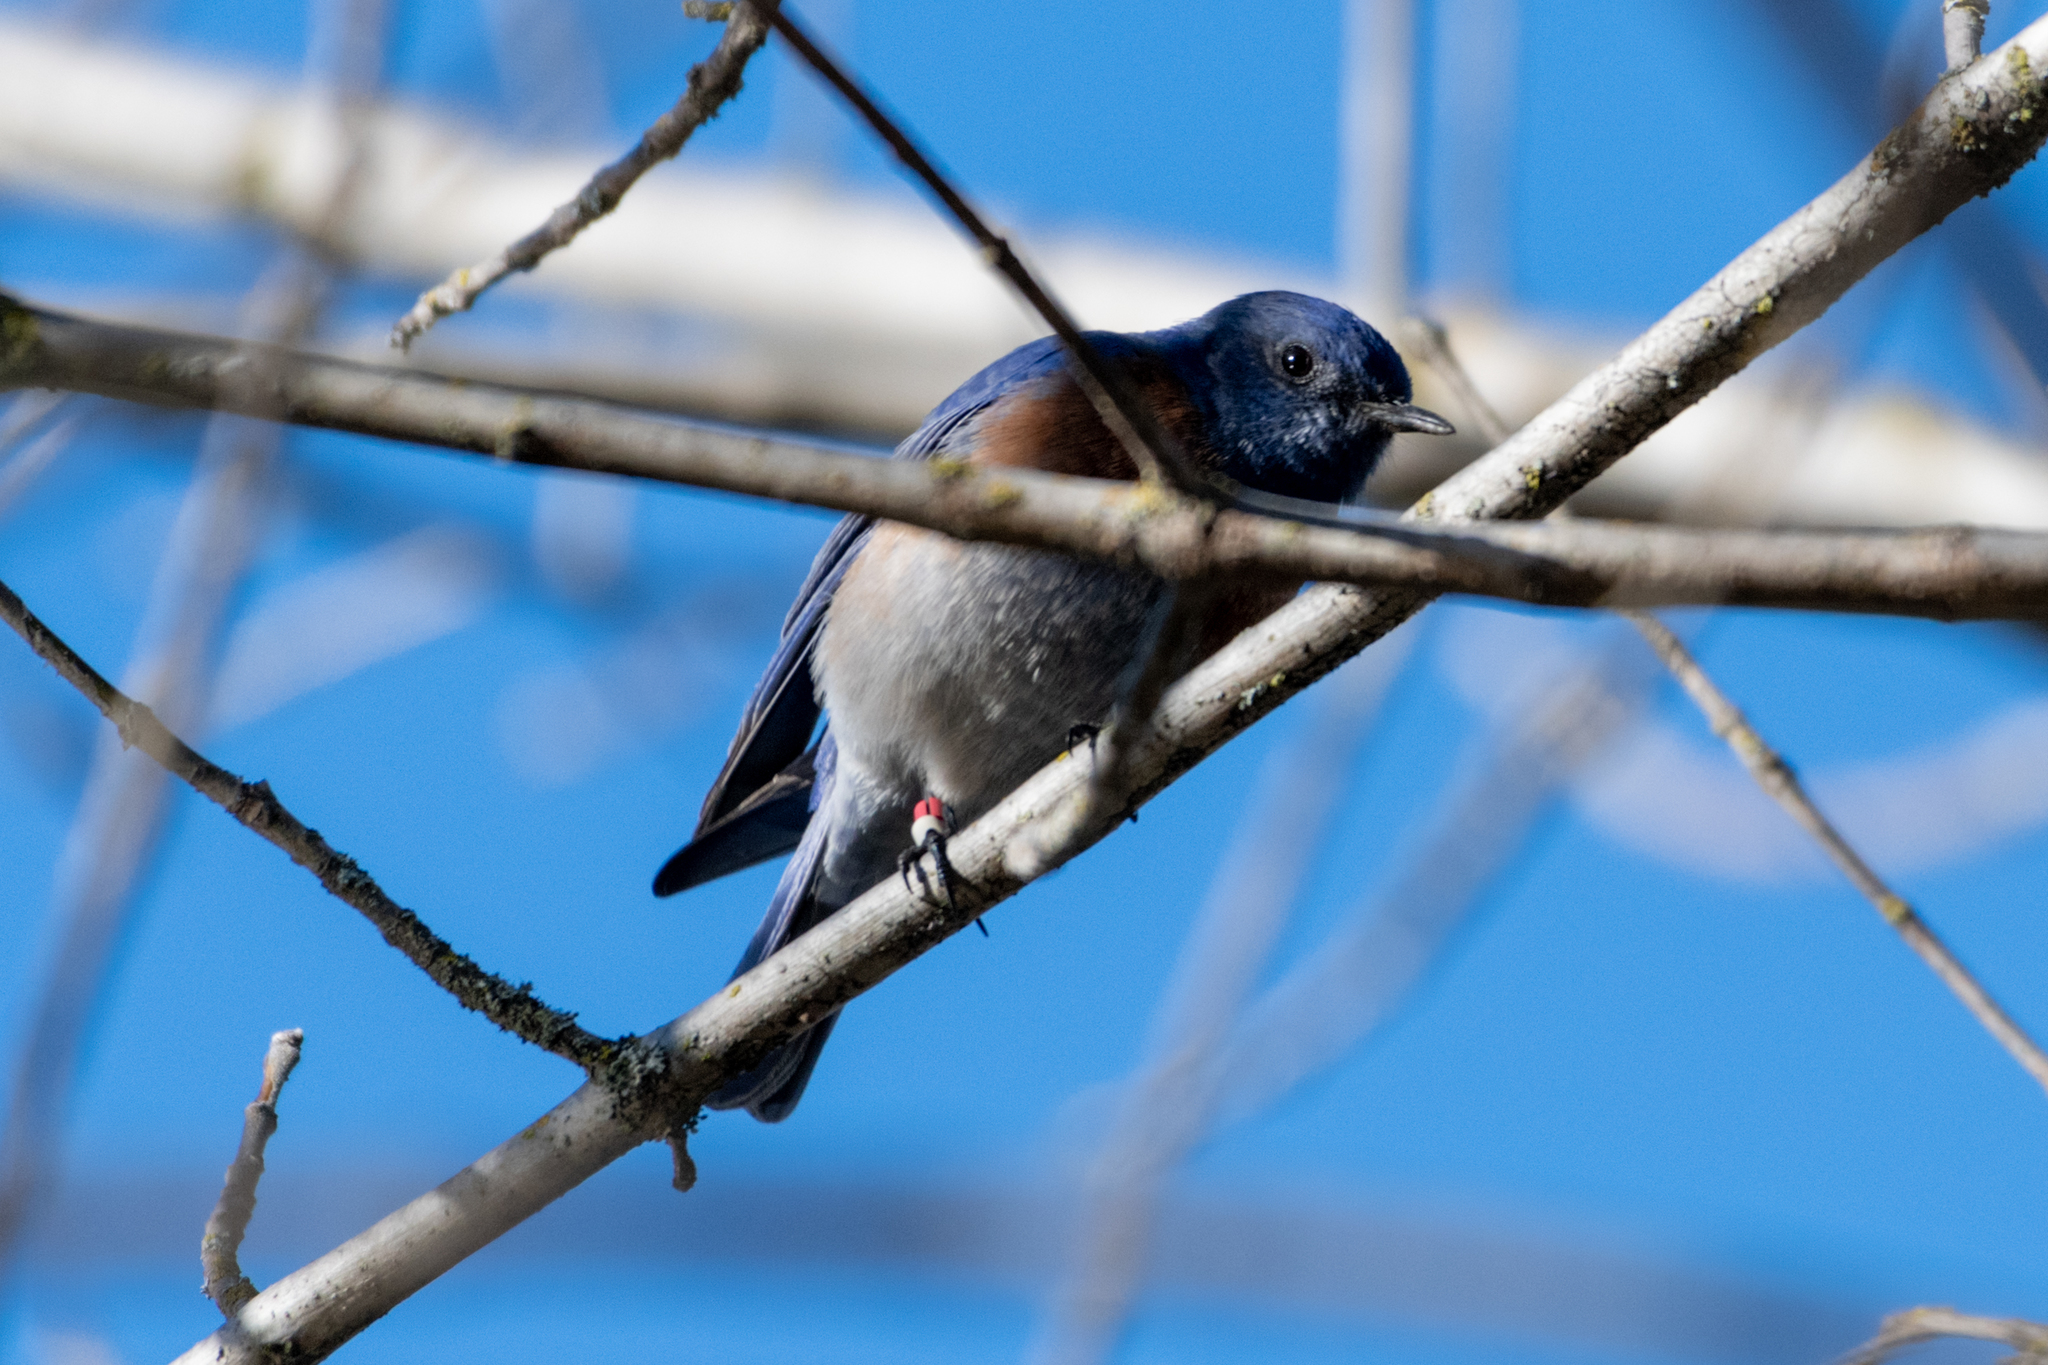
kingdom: Animalia
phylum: Chordata
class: Aves
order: Passeriformes
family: Turdidae
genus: Sialia
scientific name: Sialia mexicana
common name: Western bluebird
